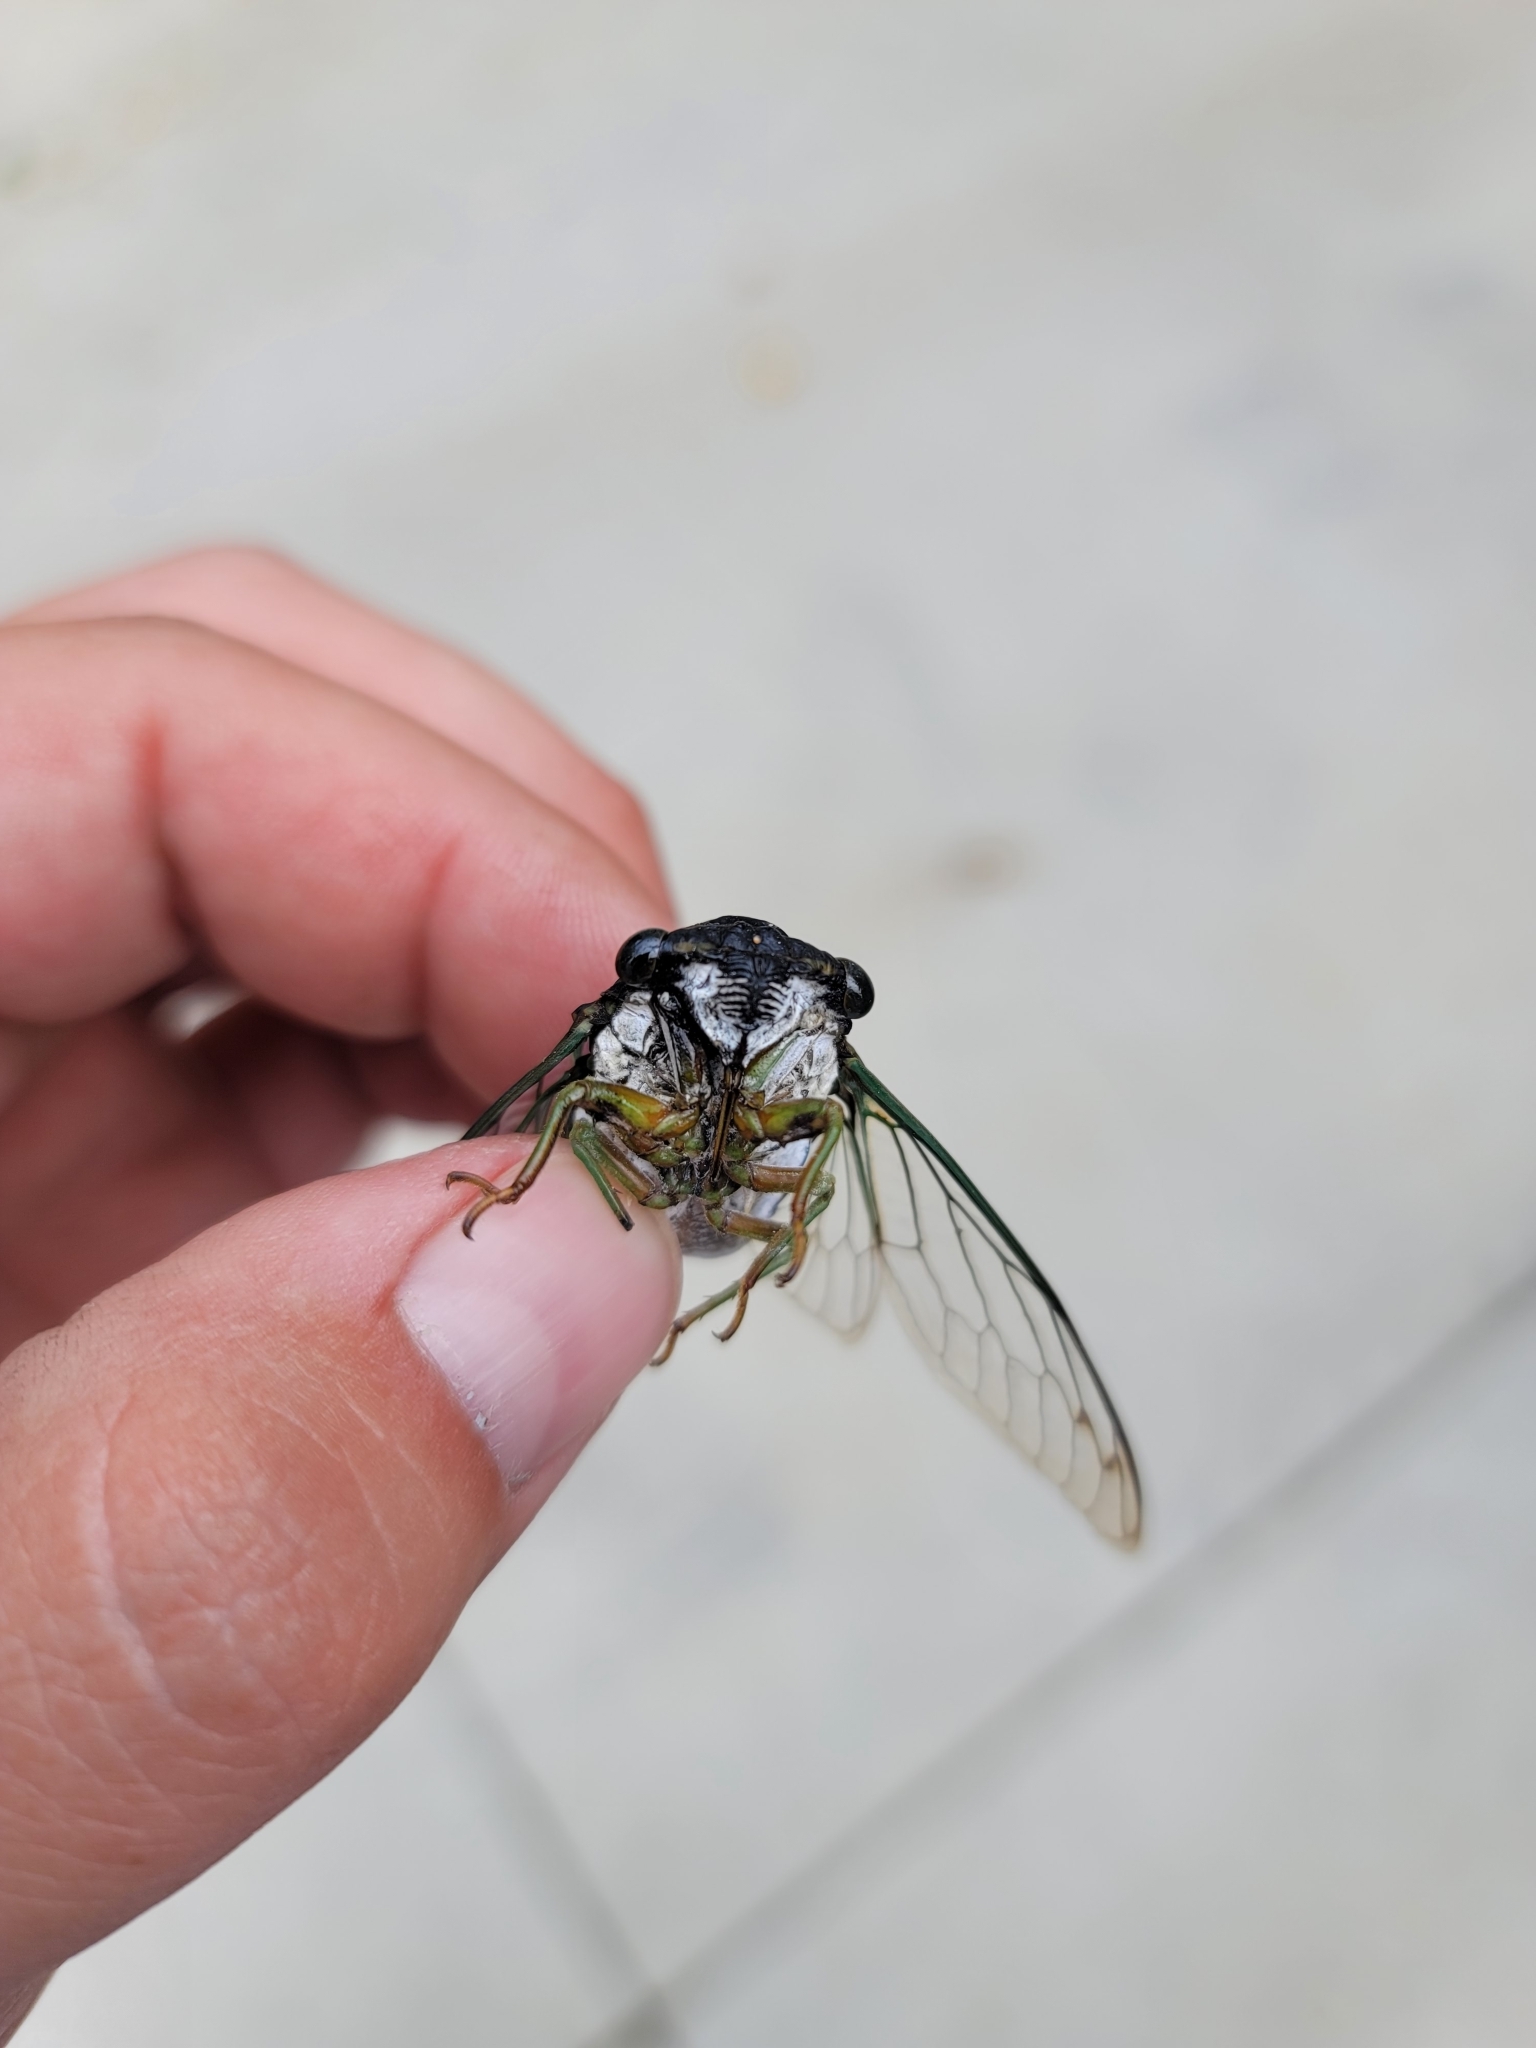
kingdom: Animalia
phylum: Arthropoda
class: Insecta
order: Hemiptera
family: Cicadidae
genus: Neotibicen
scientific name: Neotibicen tibicen
